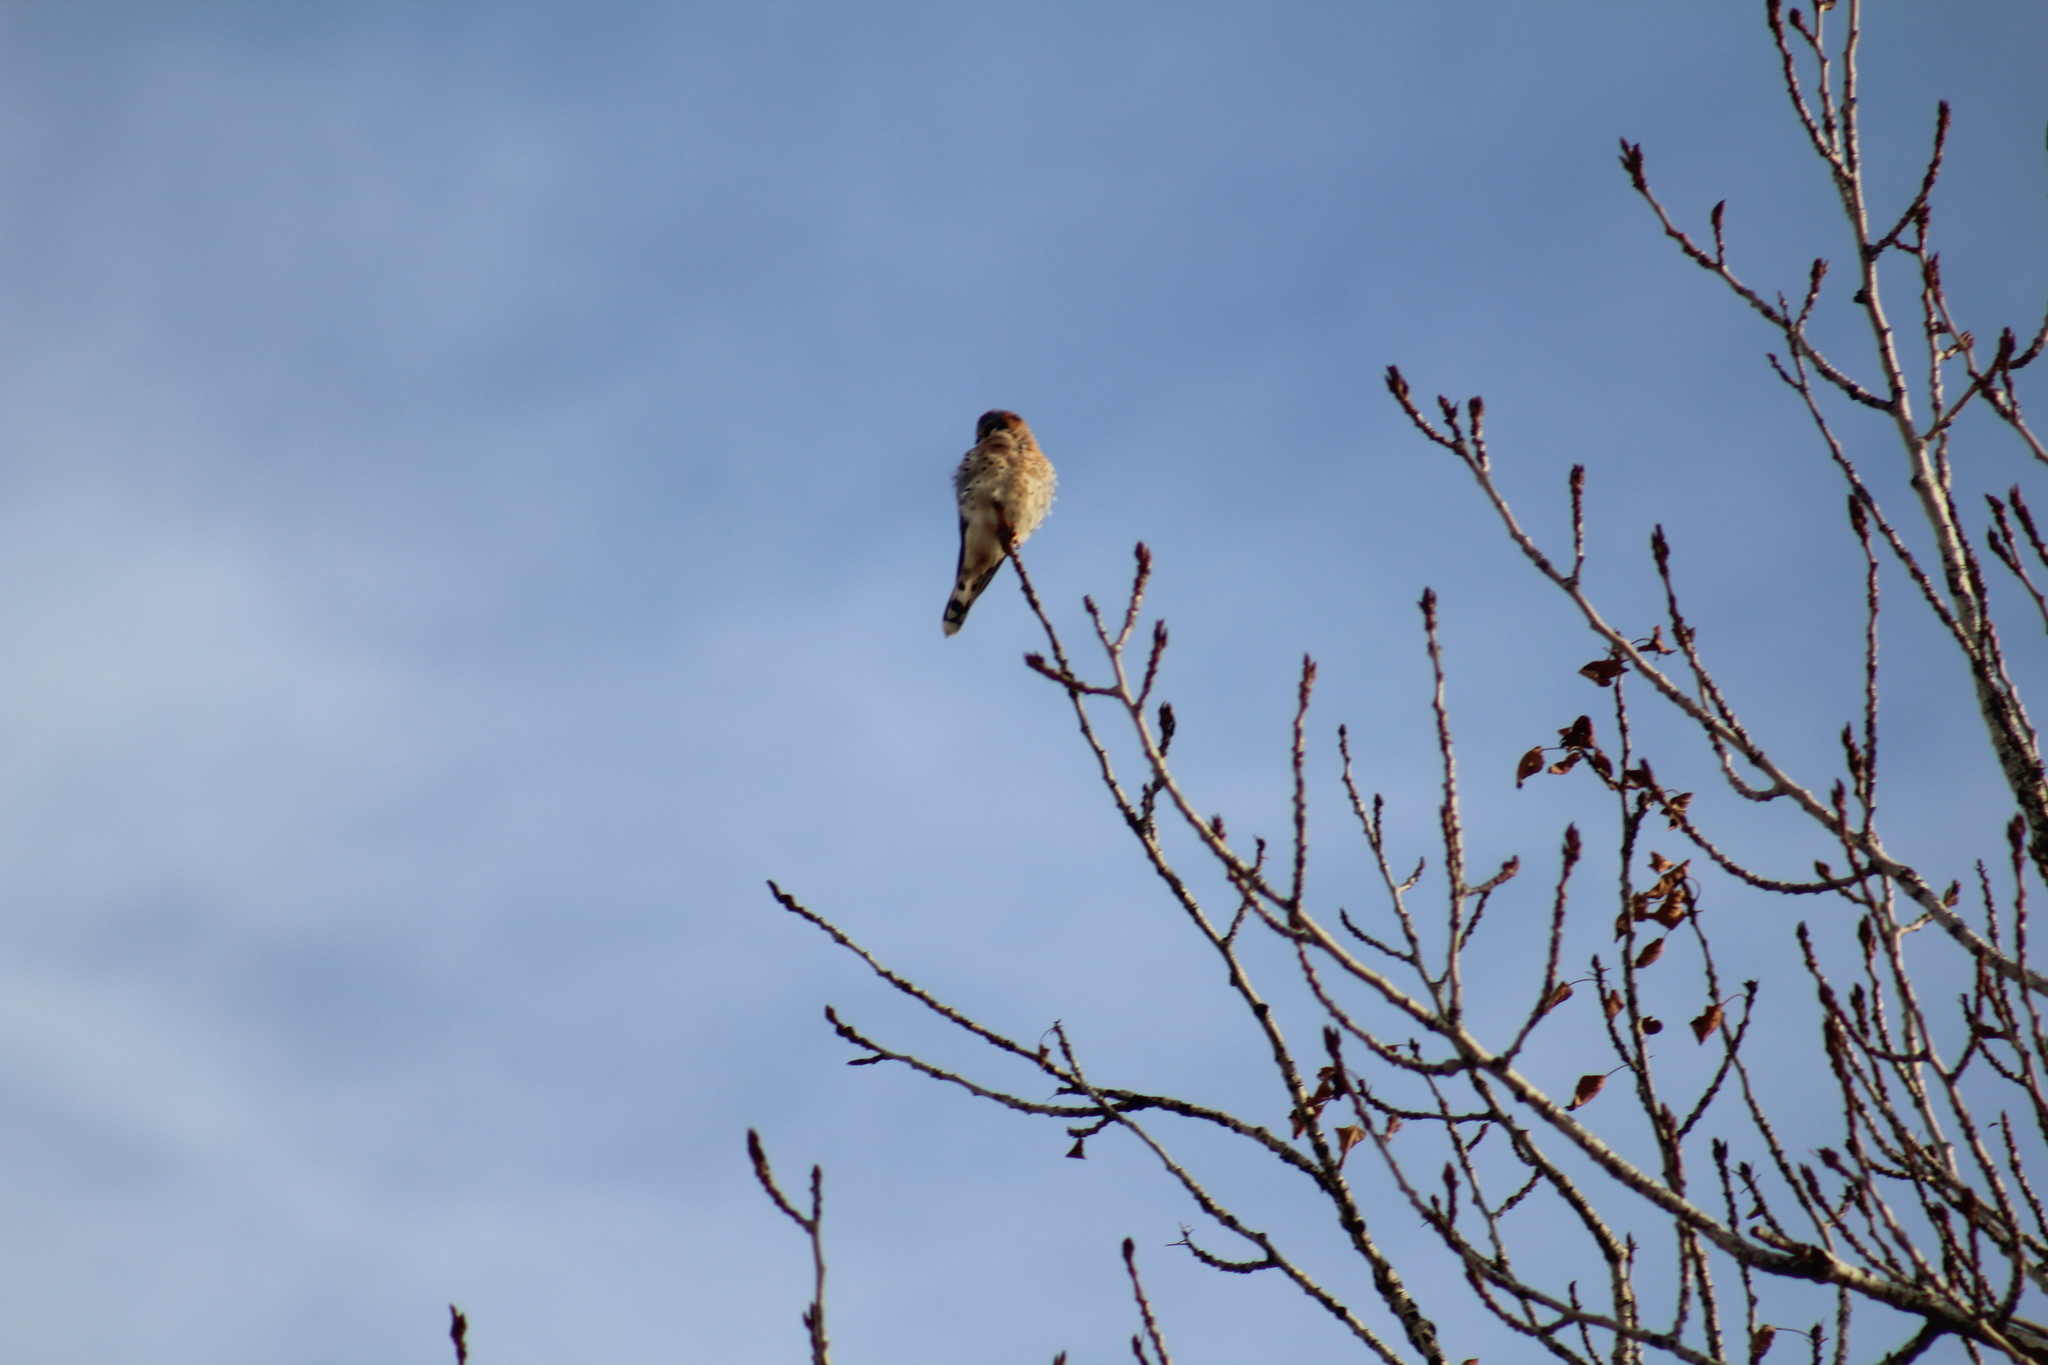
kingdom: Animalia
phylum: Chordata
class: Aves
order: Falconiformes
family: Falconidae
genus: Falco
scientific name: Falco sparverius
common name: American kestrel
